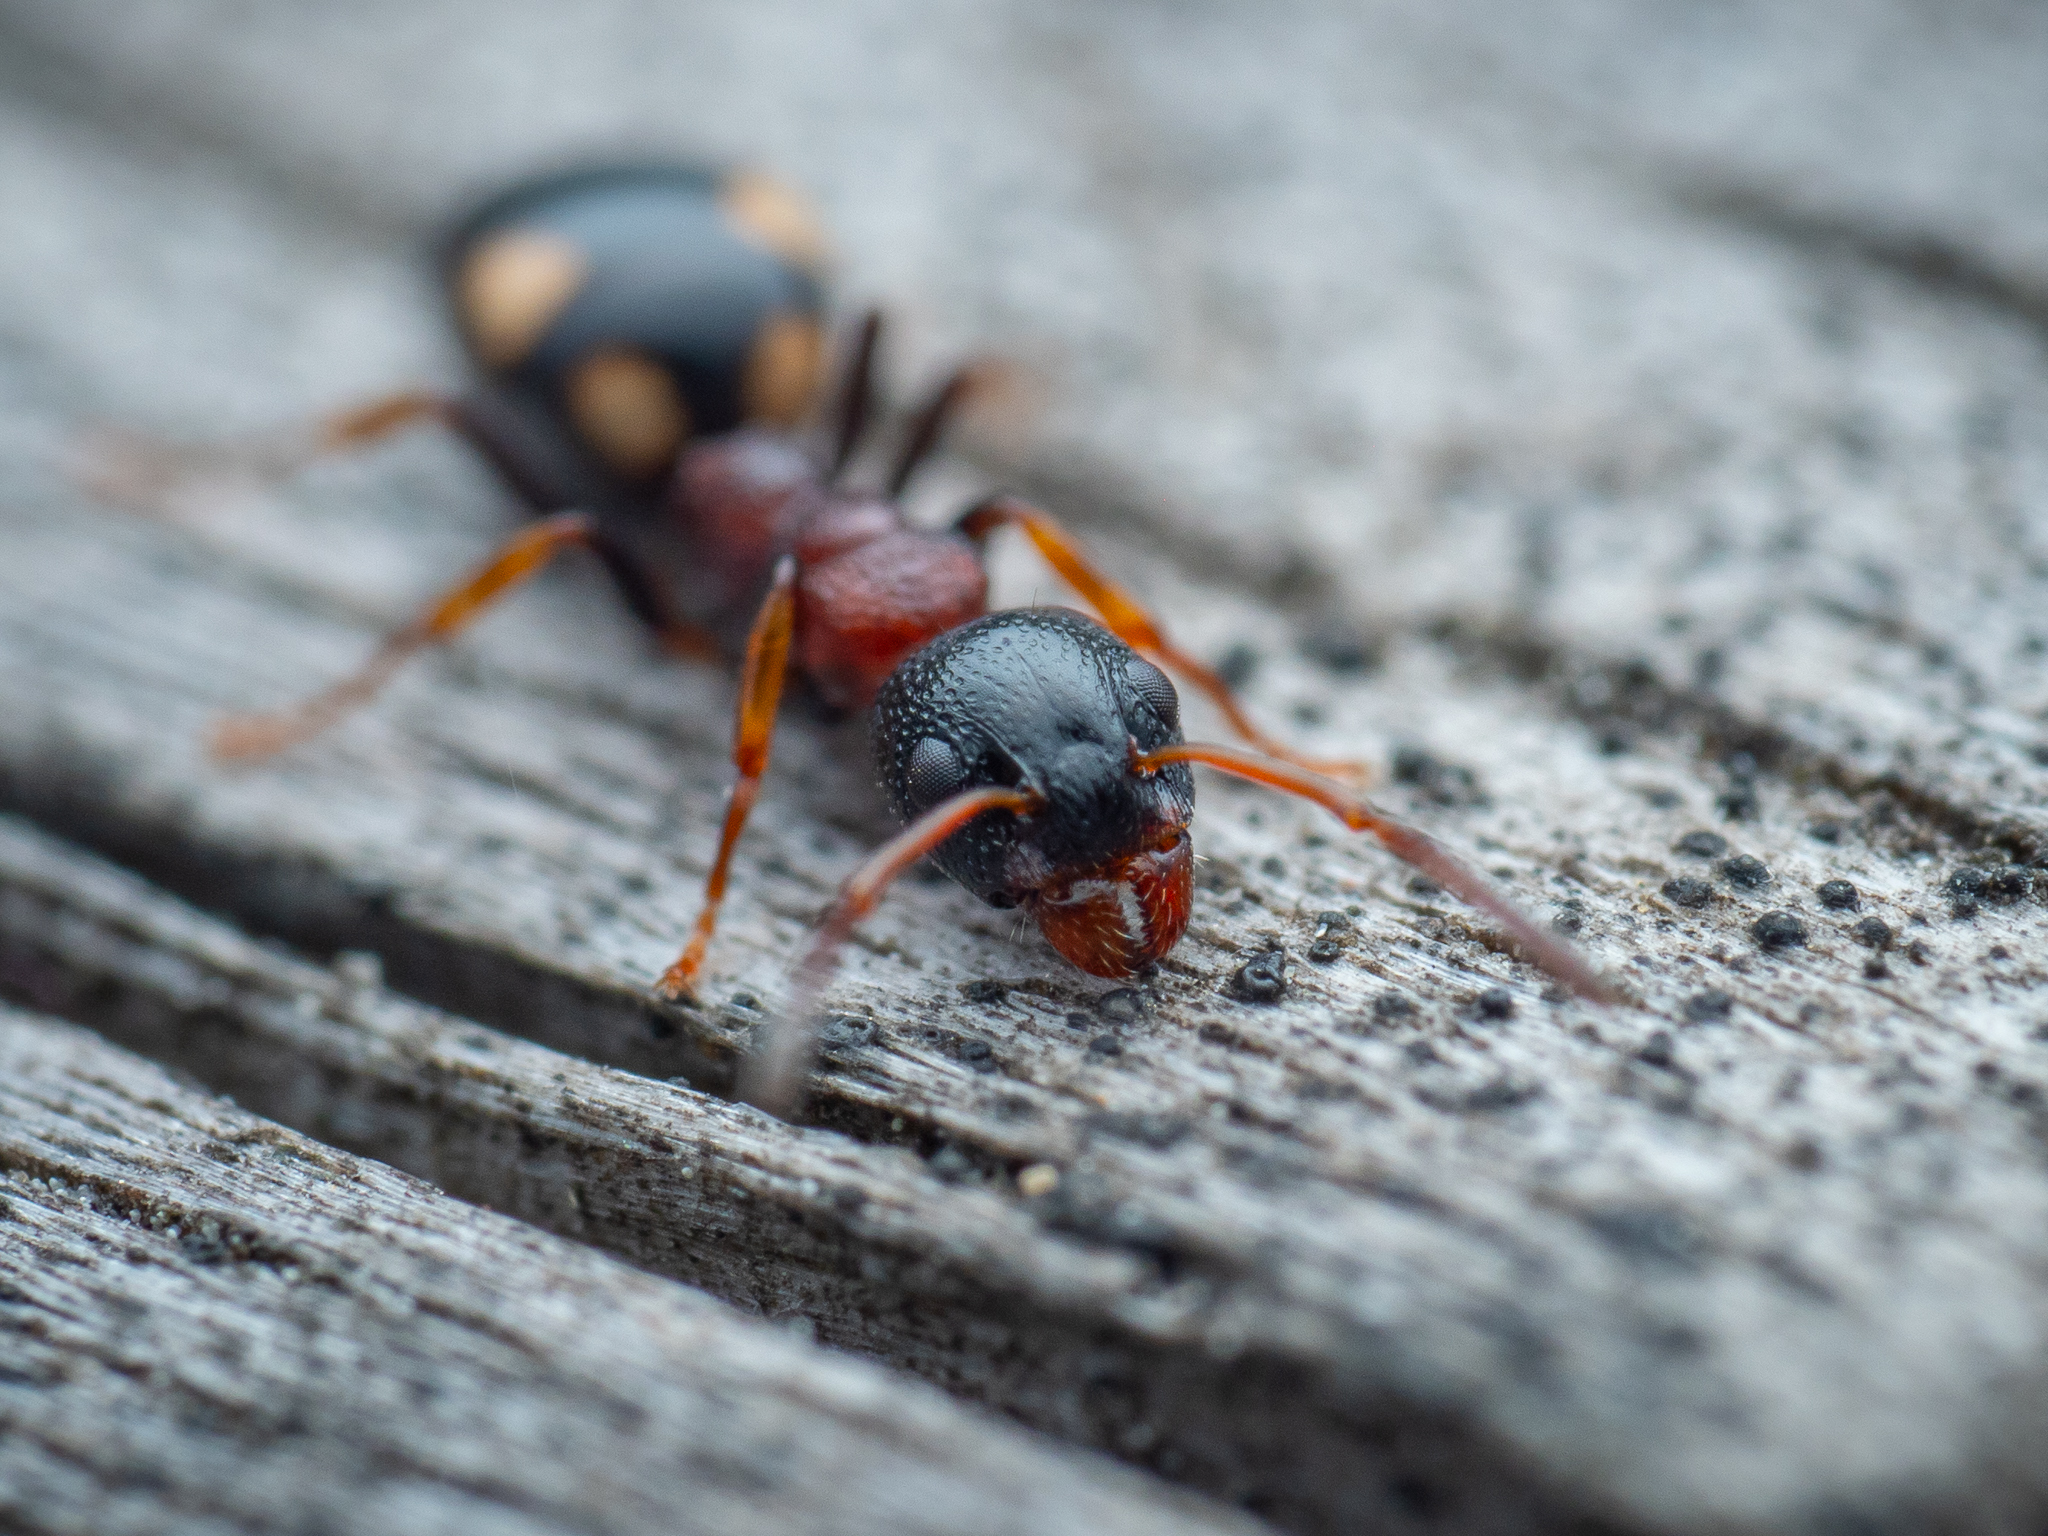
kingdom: Animalia
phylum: Arthropoda
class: Insecta
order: Hymenoptera
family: Formicidae
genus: Dolichoderus
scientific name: Dolichoderus quadripunctatus
